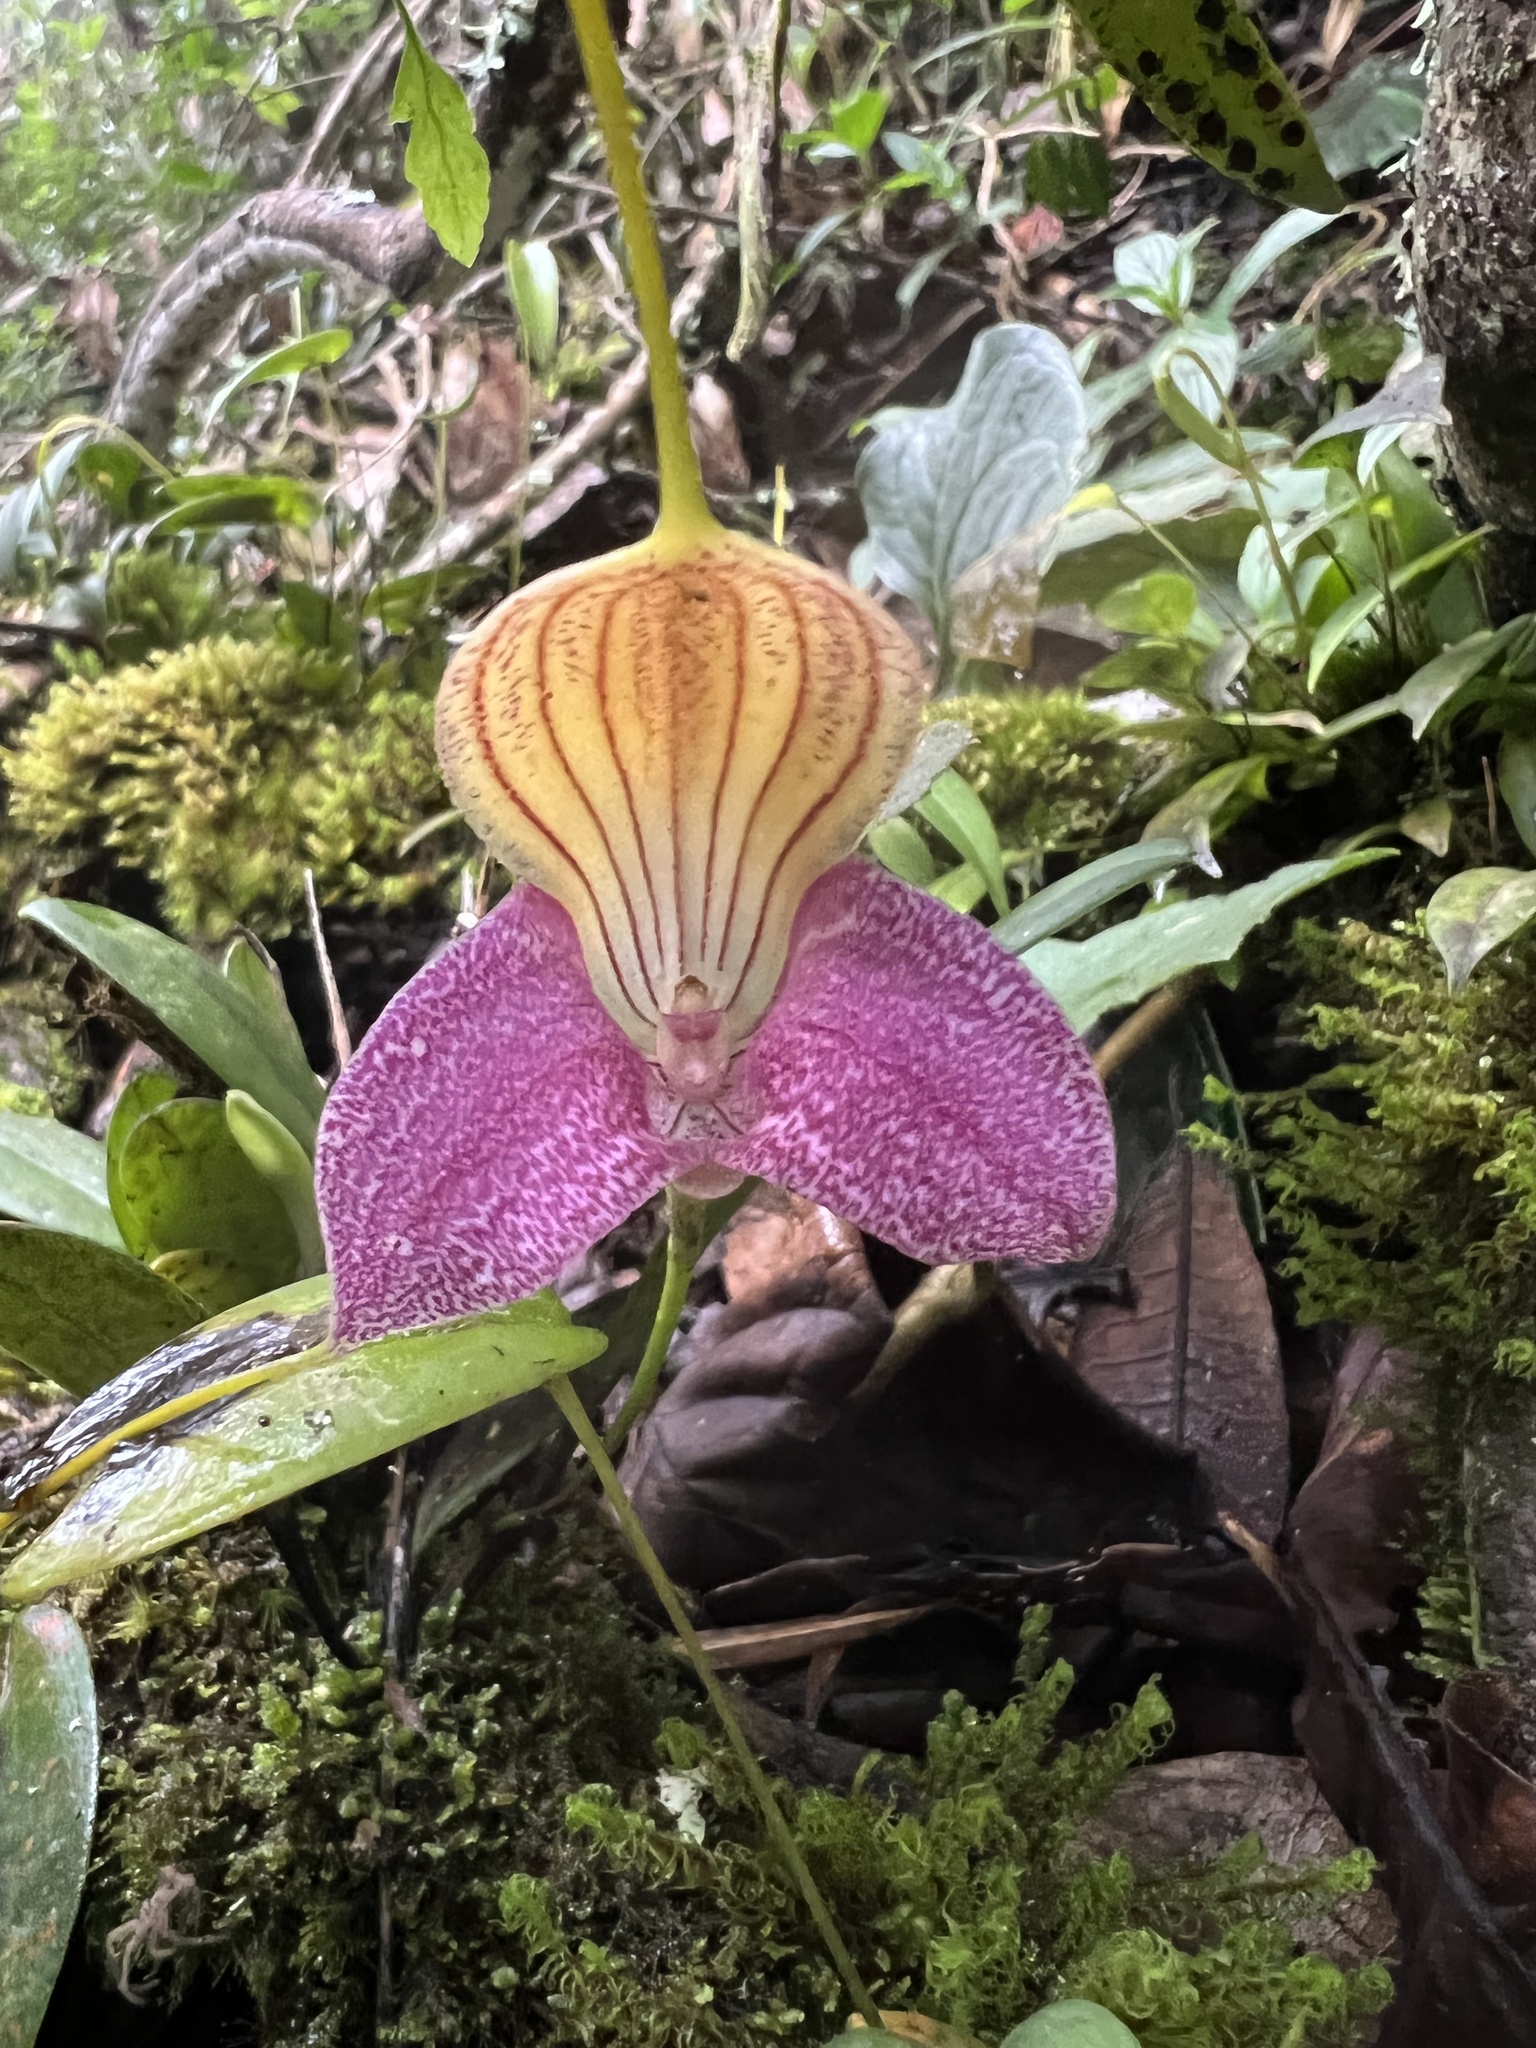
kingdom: Plantae
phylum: Tracheophyta
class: Liliopsida
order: Asparagales
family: Orchidaceae
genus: Masdevallia
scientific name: Masdevallia caudata
